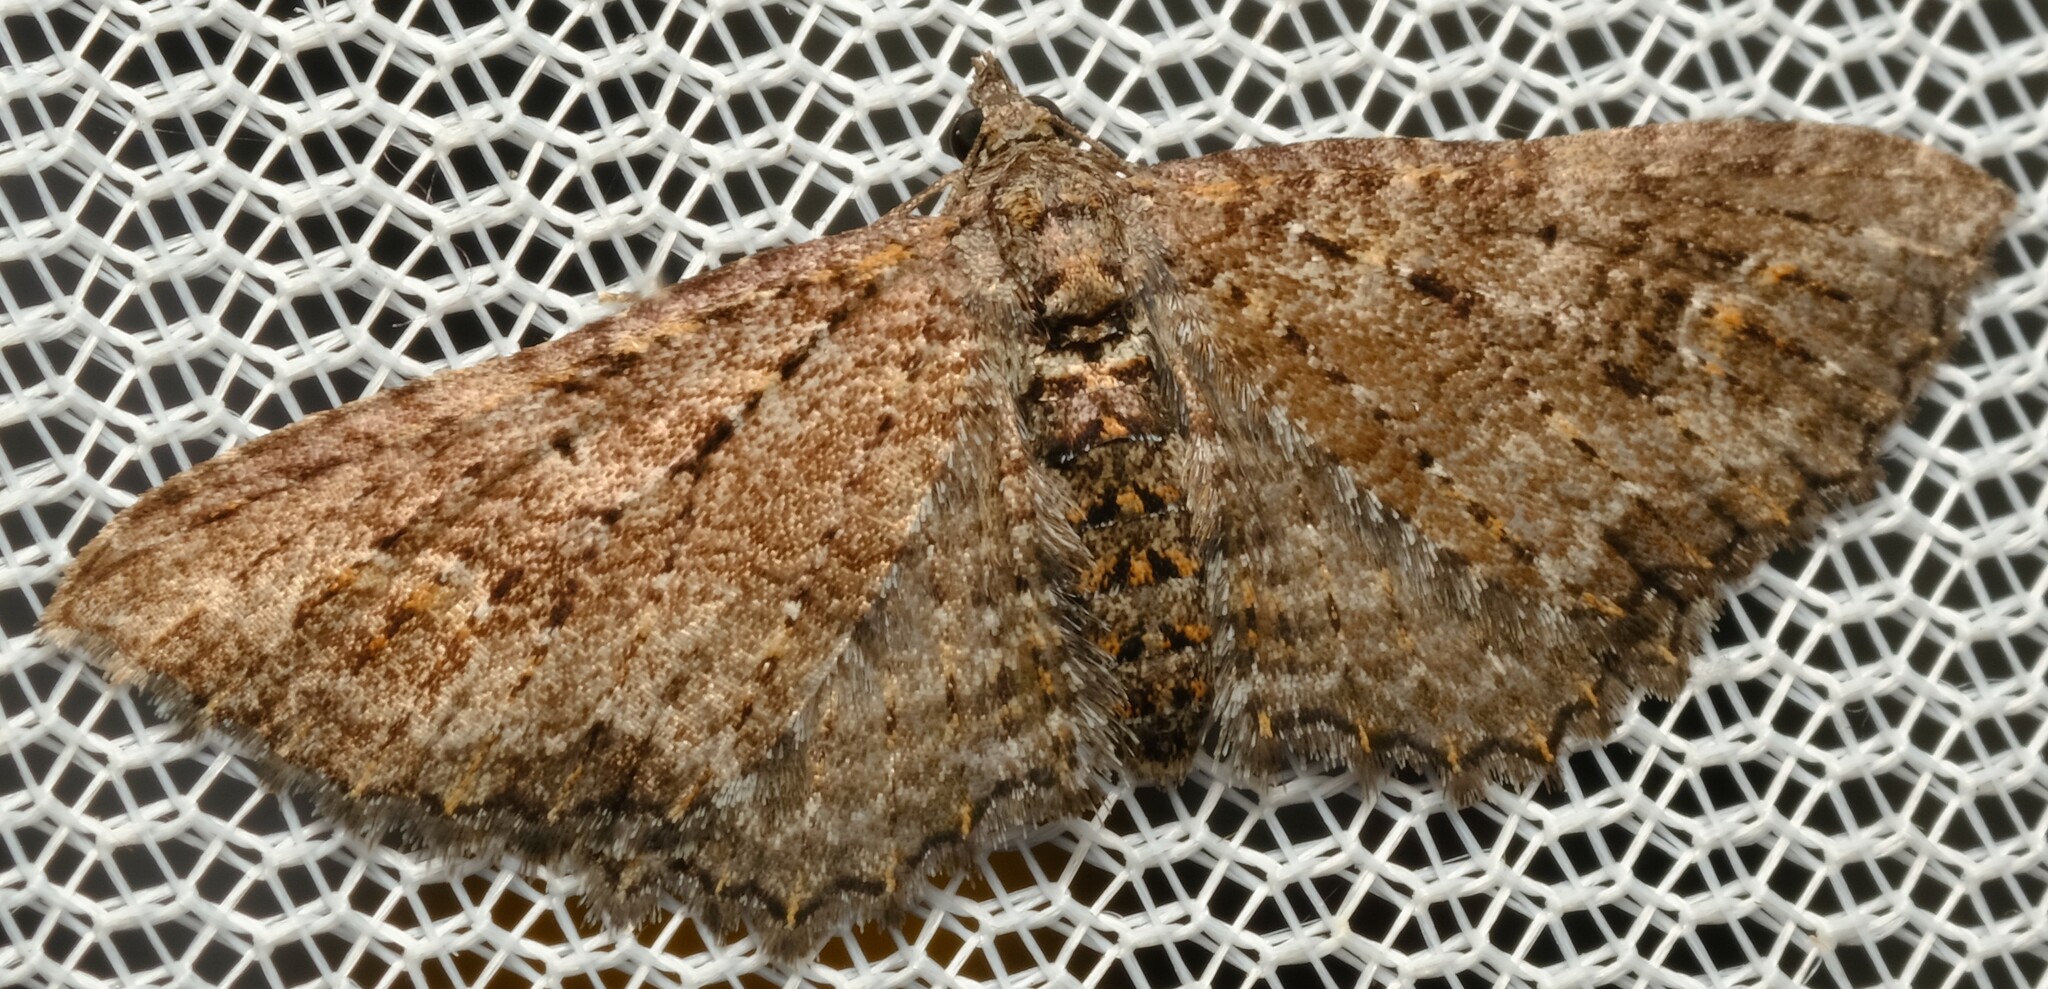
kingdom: Animalia
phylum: Arthropoda
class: Insecta
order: Lepidoptera
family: Geometridae
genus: Eupithecia
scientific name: Eupithecia Eucymatoge scotodes
